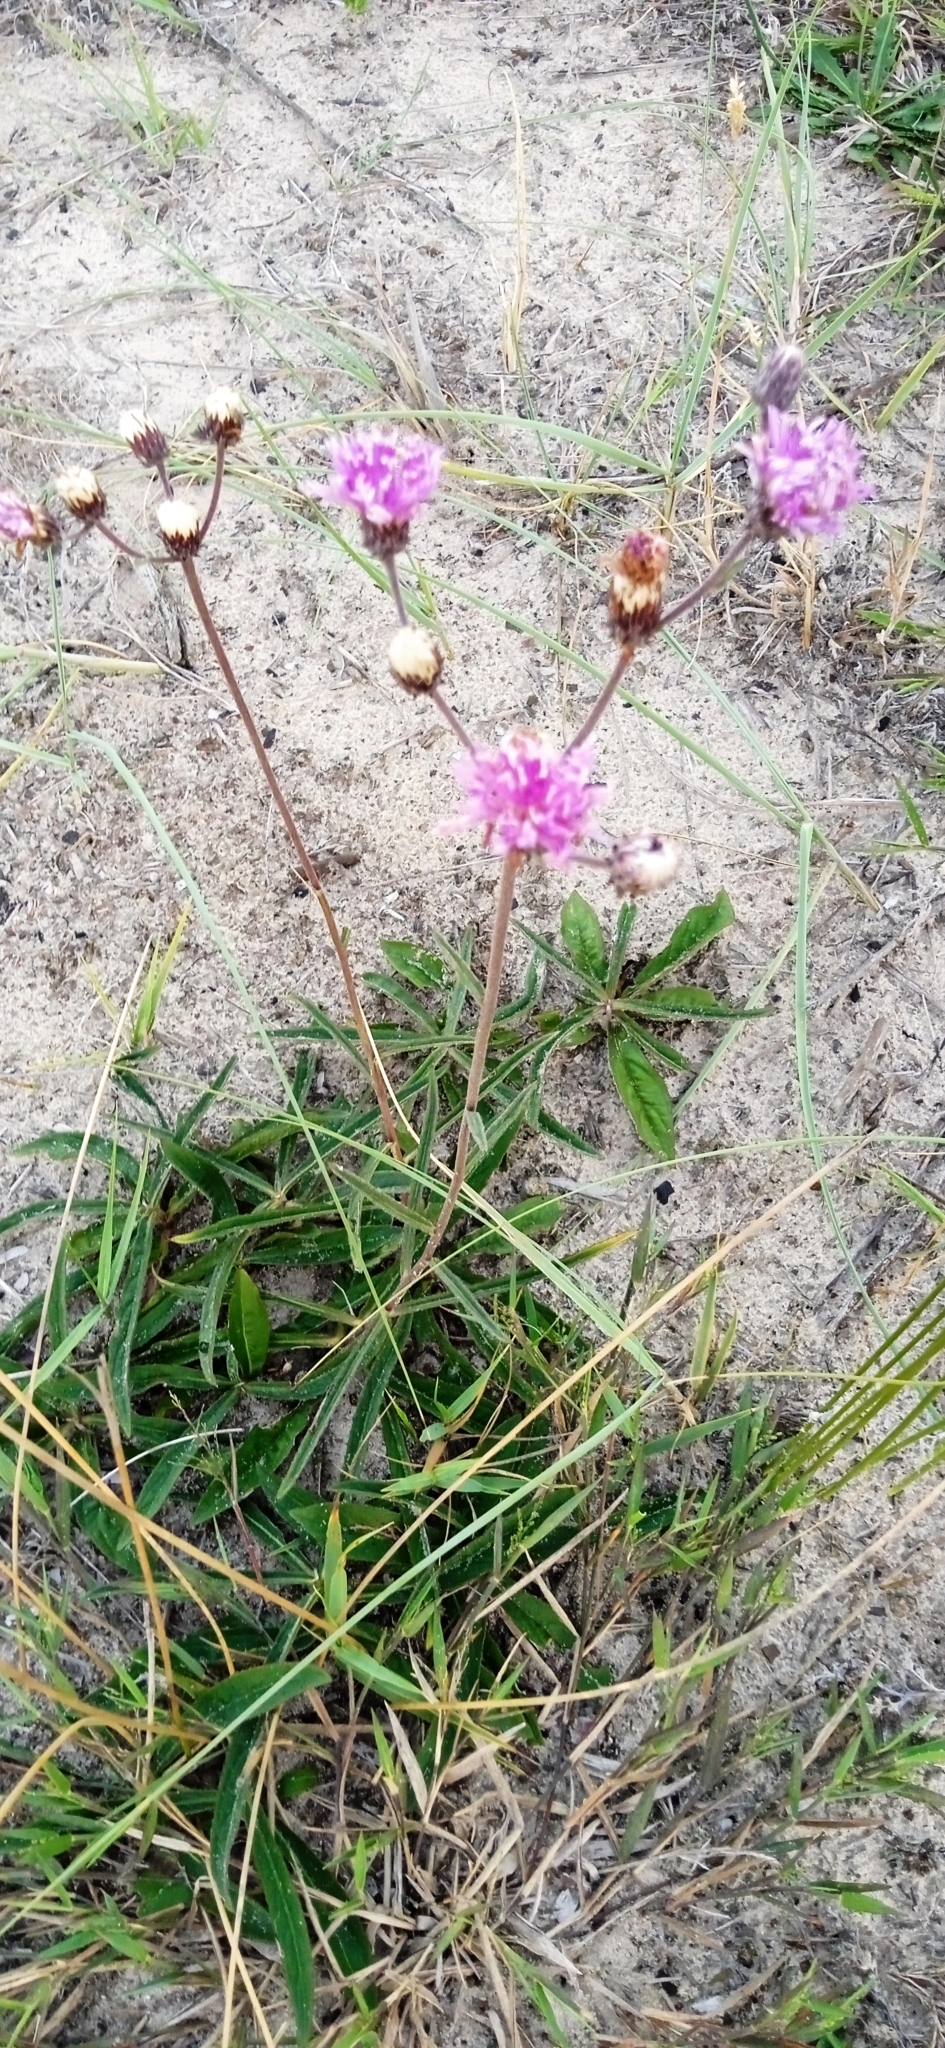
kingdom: Plantae
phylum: Tracheophyta
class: Magnoliopsida
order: Asterales
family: Asteraceae
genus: Chrysolaena
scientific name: Chrysolaena flexuosa
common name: Zig-zag vernonia
